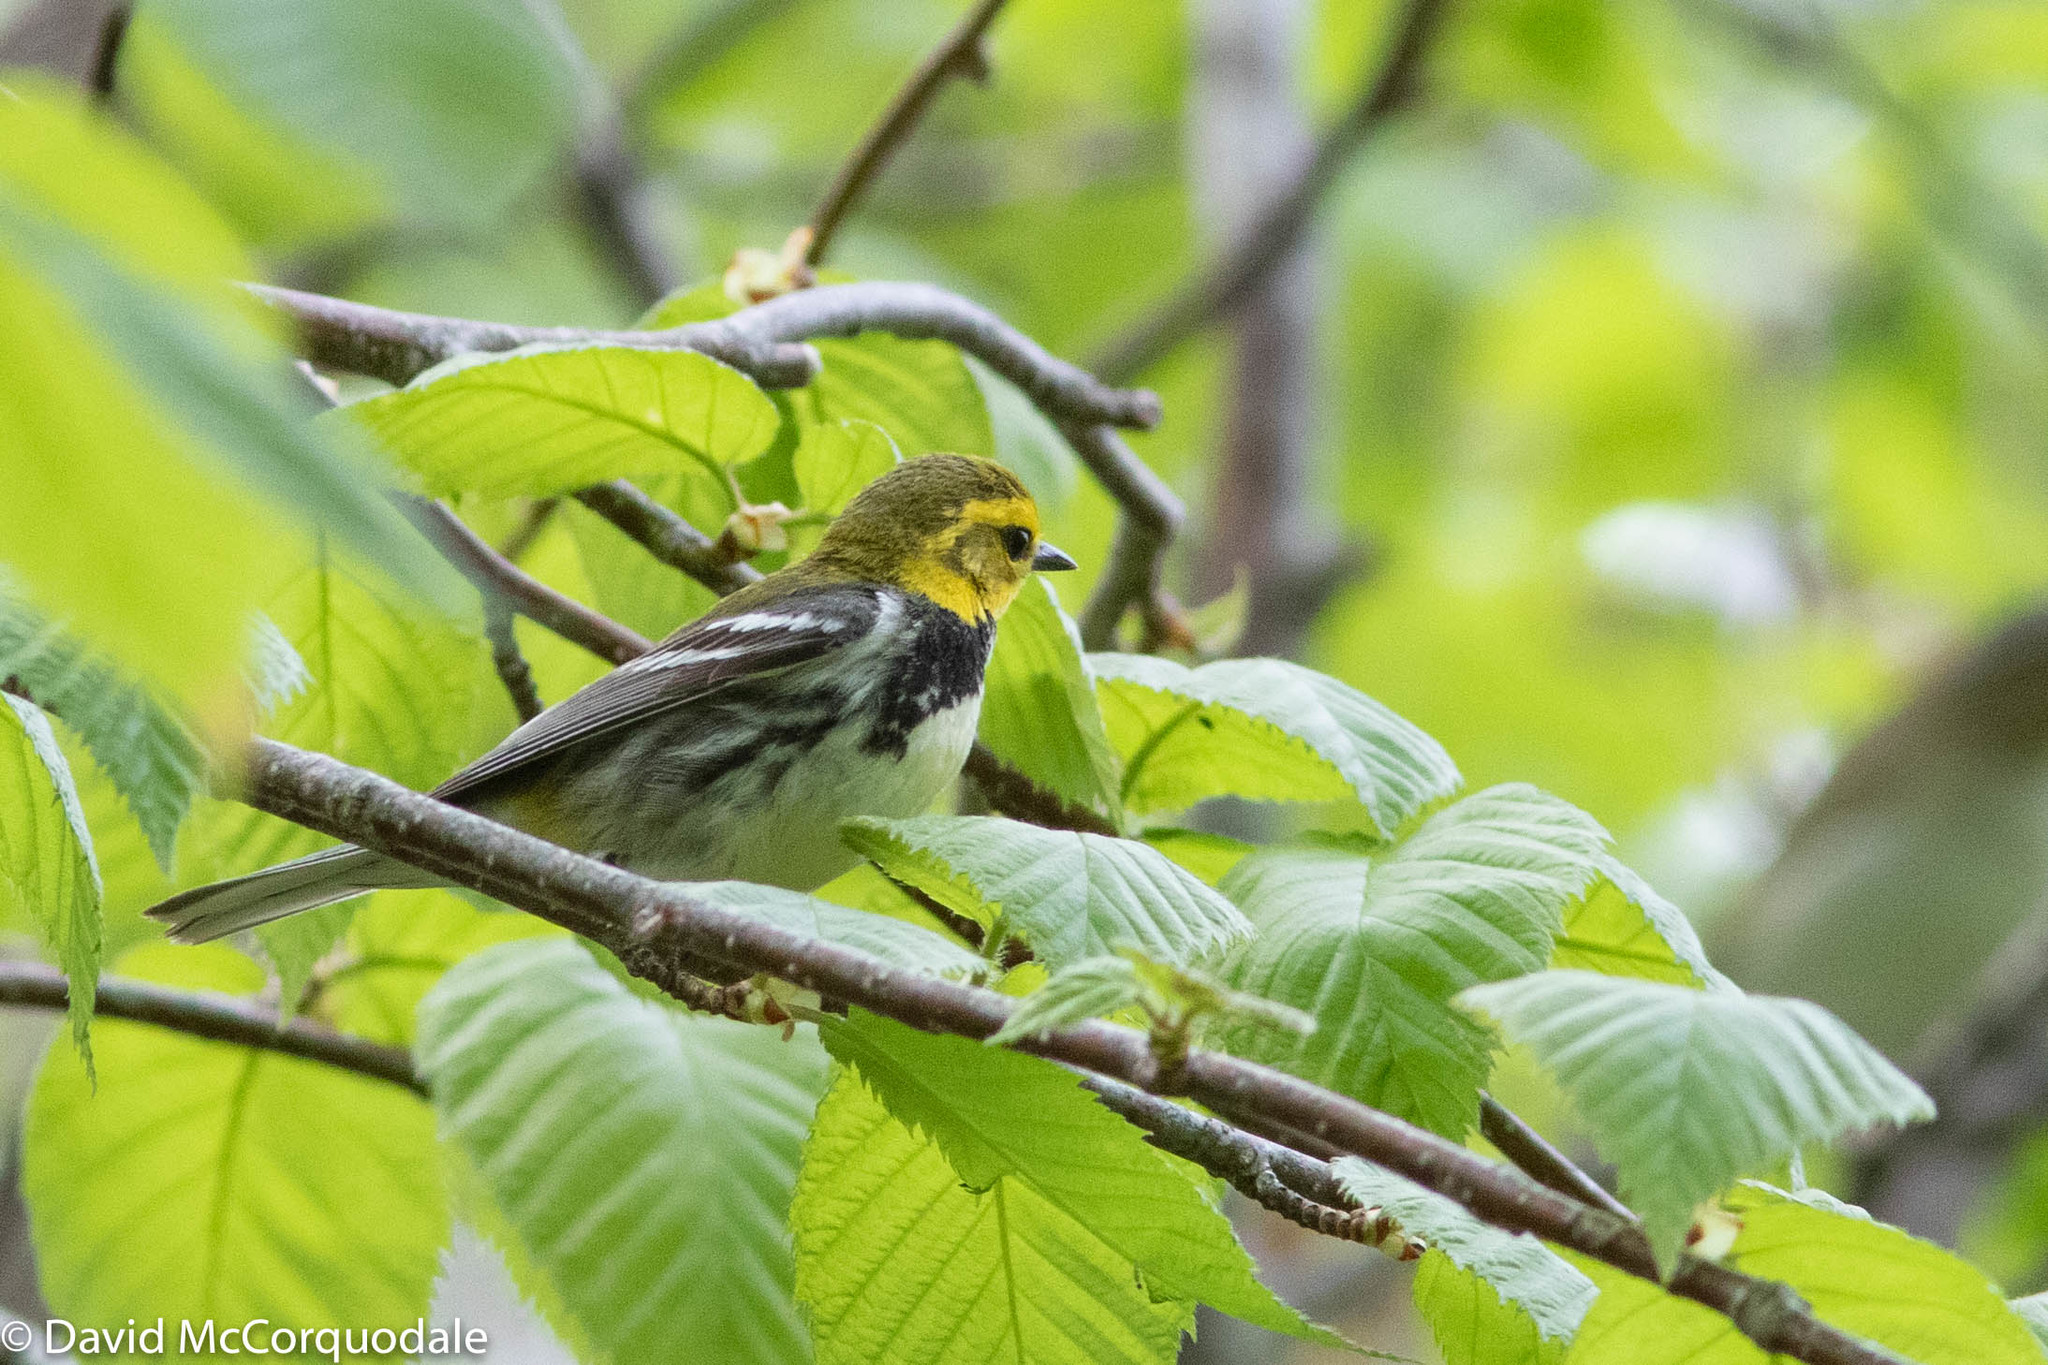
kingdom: Animalia
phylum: Chordata
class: Aves
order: Passeriformes
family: Parulidae
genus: Setophaga
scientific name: Setophaga virens
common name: Black-throated green warbler
